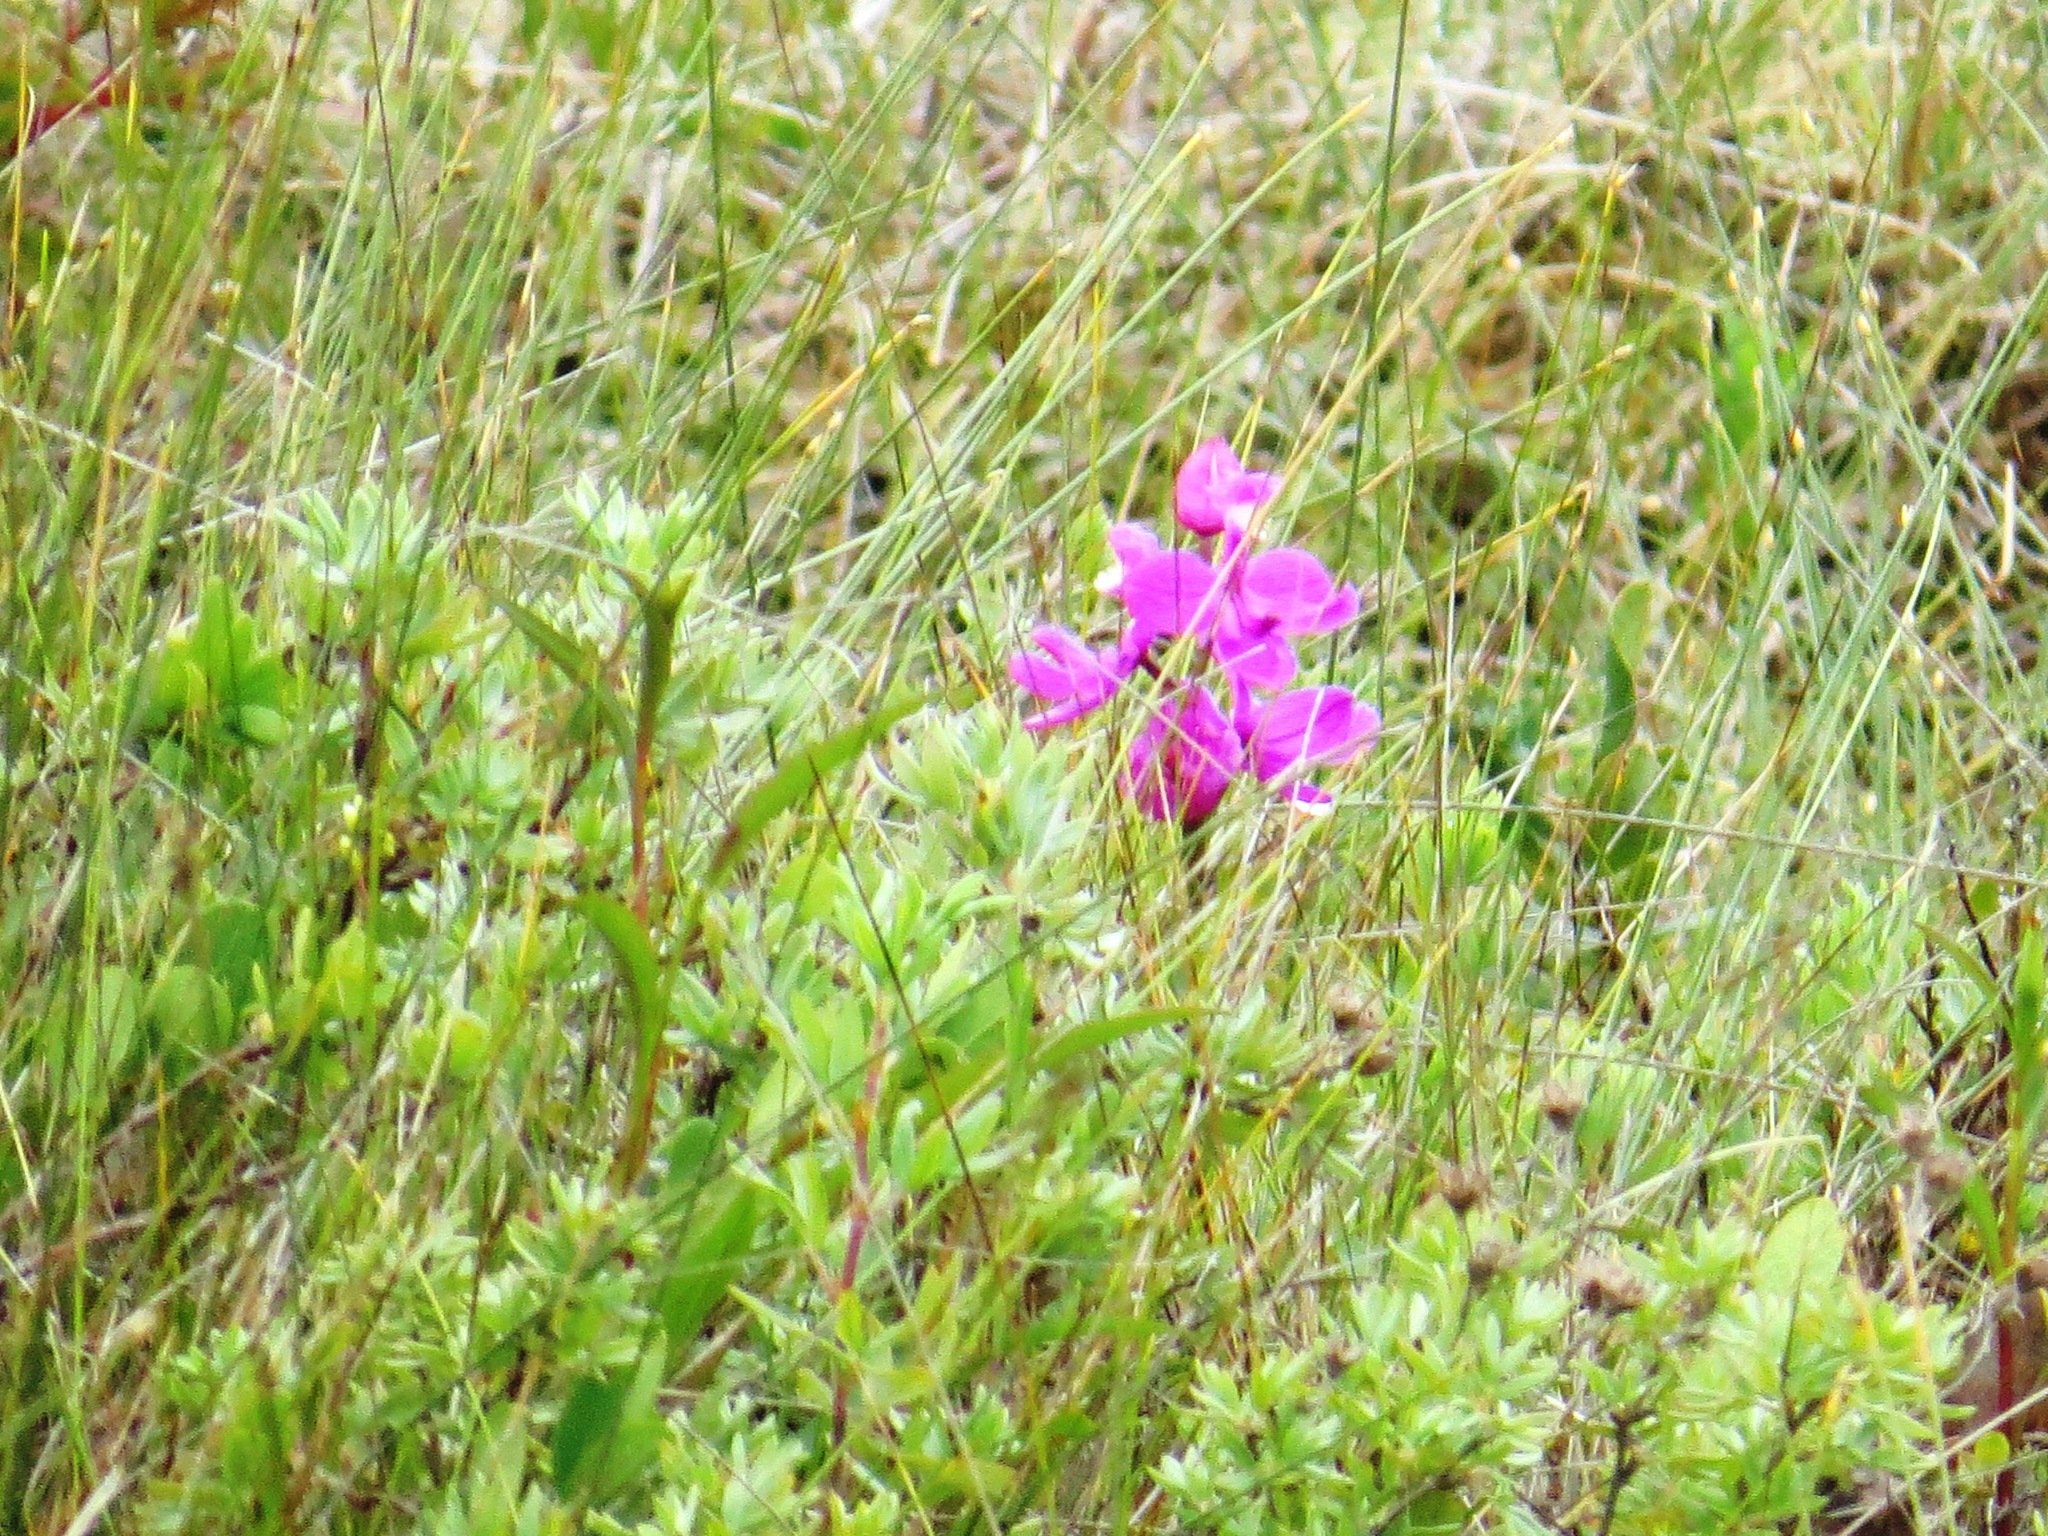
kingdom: Plantae
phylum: Tracheophyta
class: Liliopsida
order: Asparagales
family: Orchidaceae
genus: Calopogon
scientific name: Calopogon tuberosus
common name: Grass-pink
